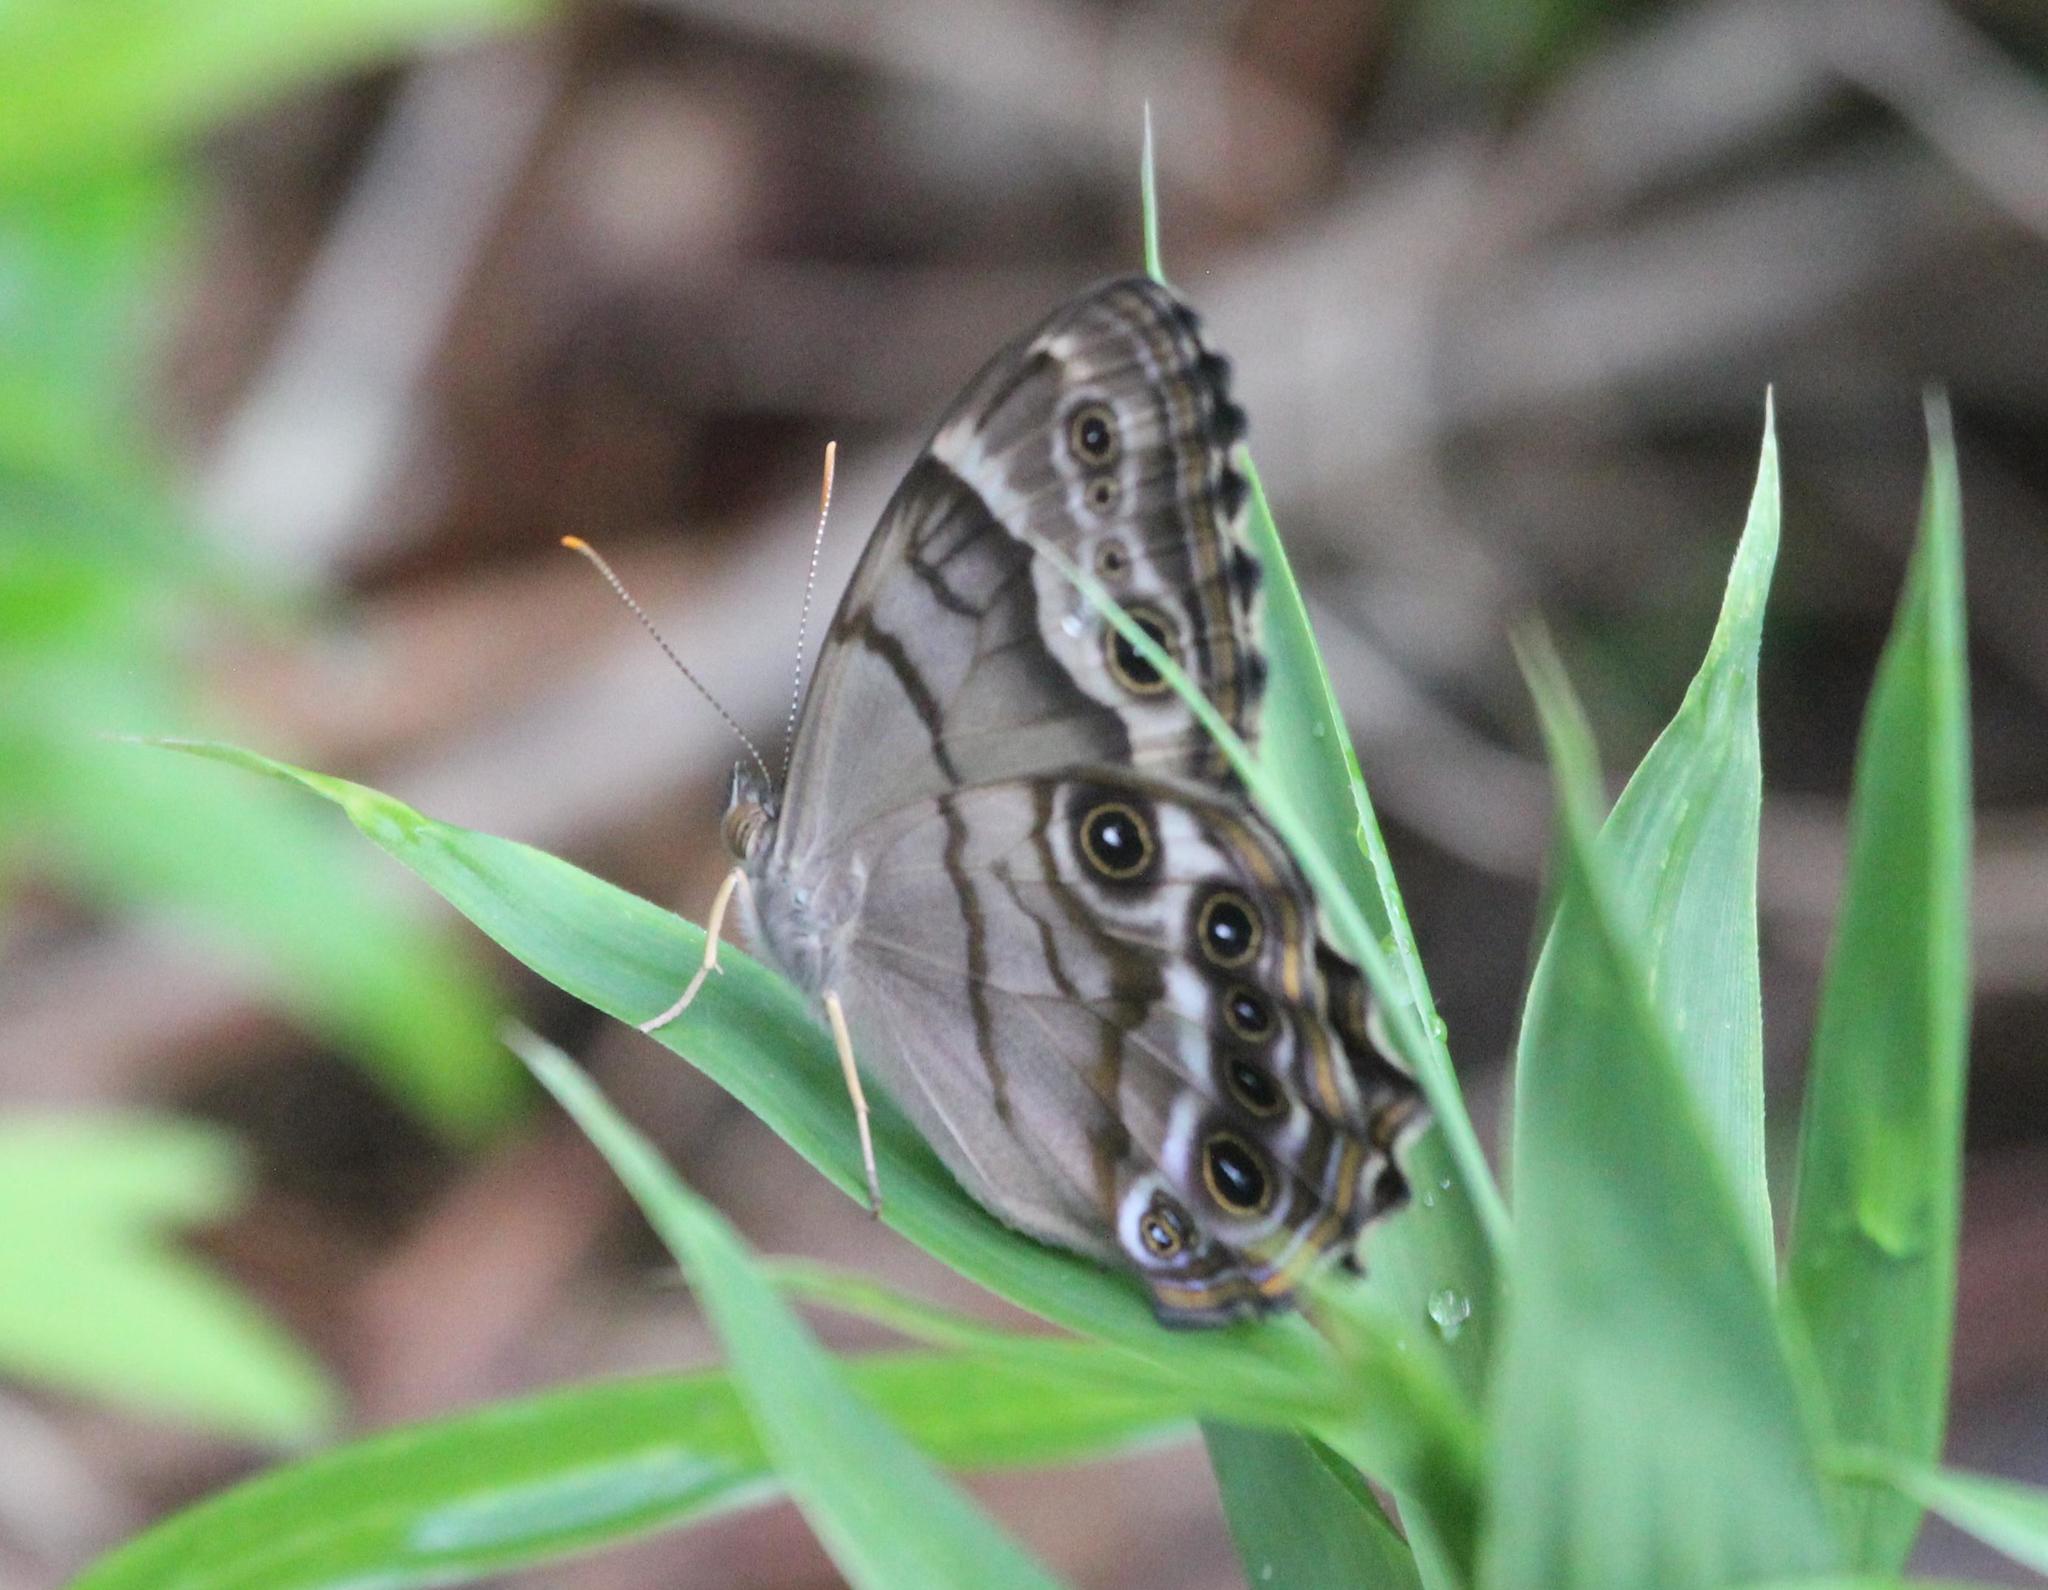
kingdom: Animalia
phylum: Arthropoda
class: Insecta
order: Lepidoptera
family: Nymphalidae
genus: Enodia
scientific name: Enodia portlandia
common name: Southern pearly-eye
